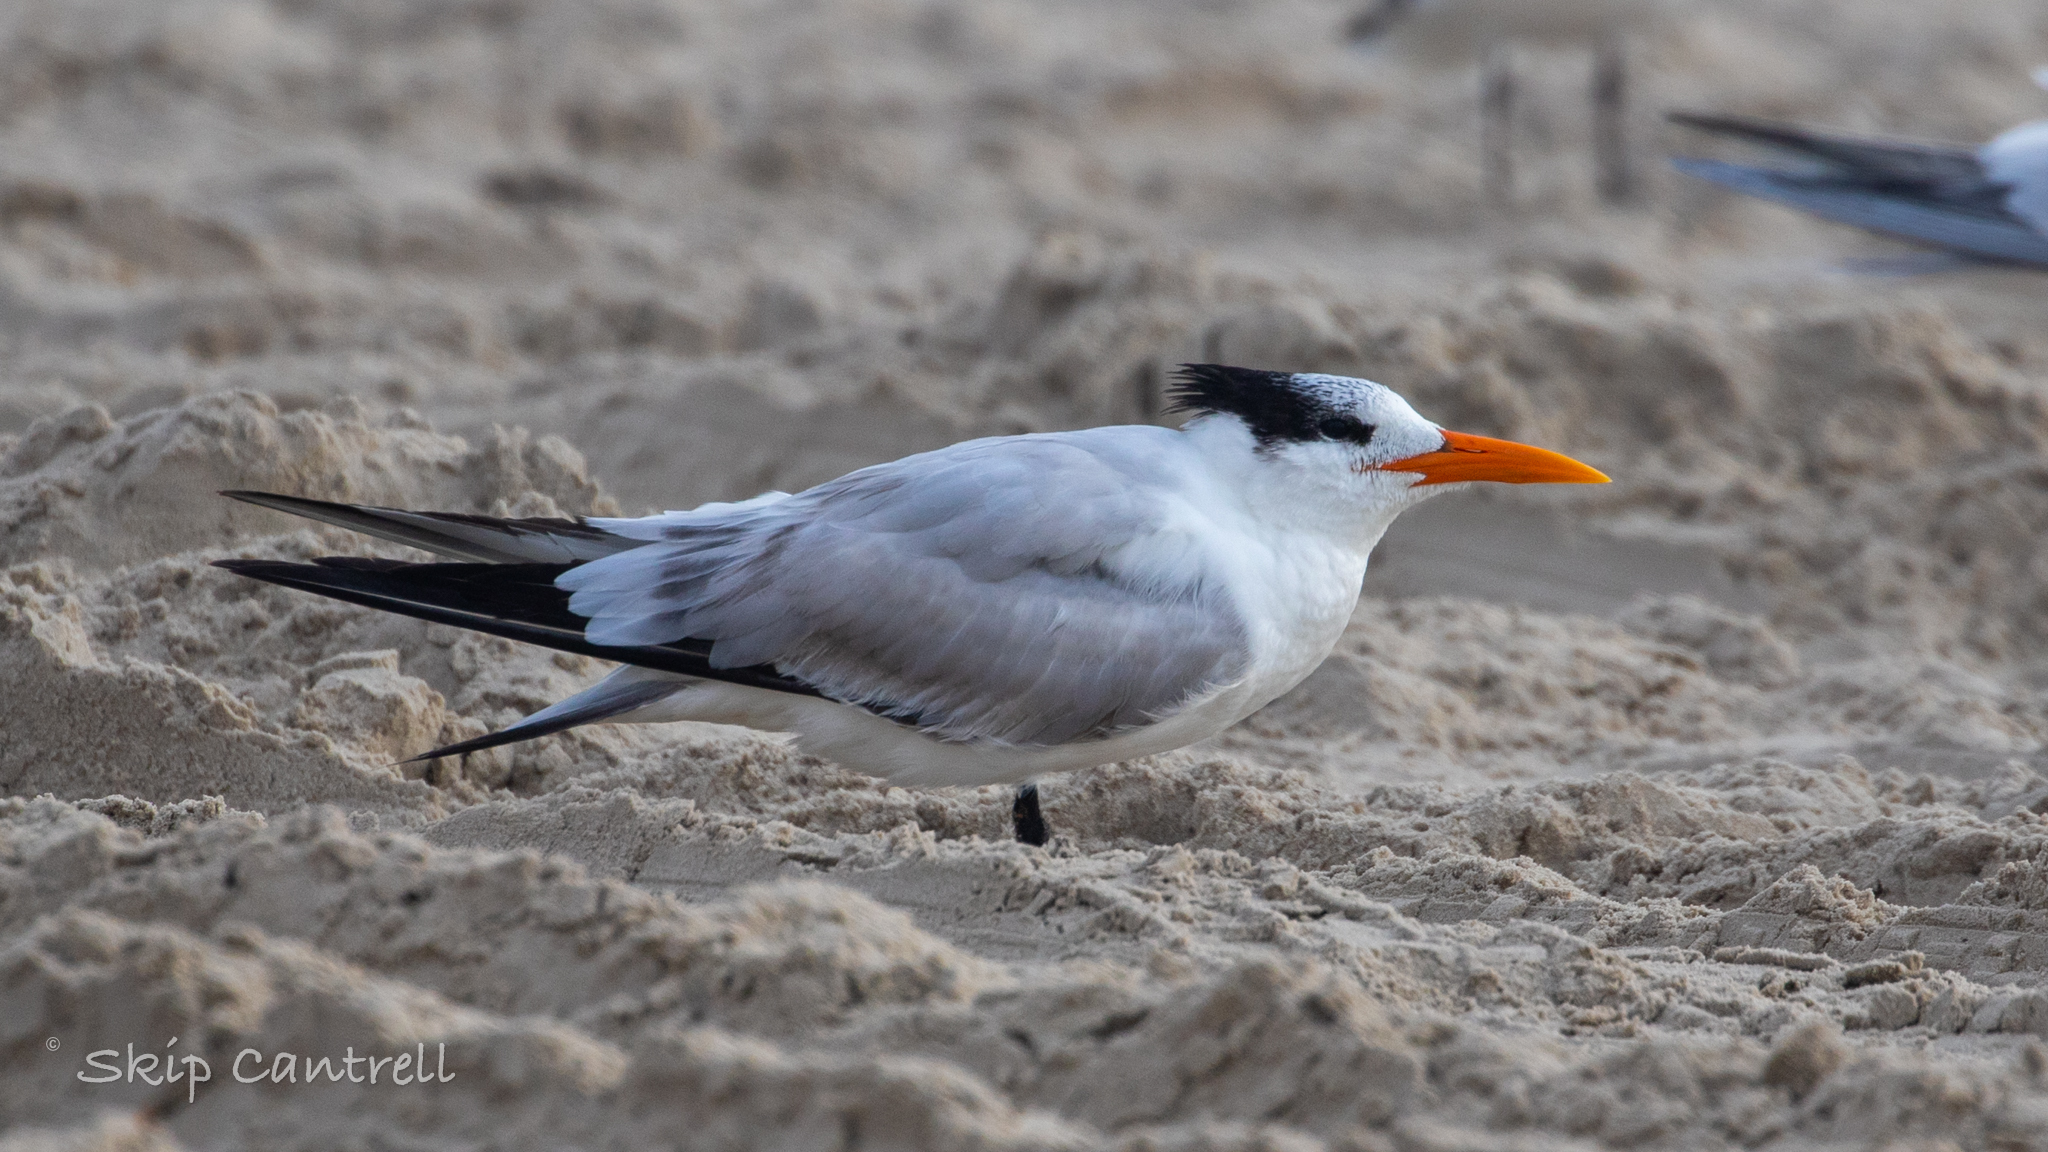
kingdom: Animalia
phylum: Chordata
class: Aves
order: Charadriiformes
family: Laridae
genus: Thalasseus
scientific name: Thalasseus maximus
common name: Royal tern
